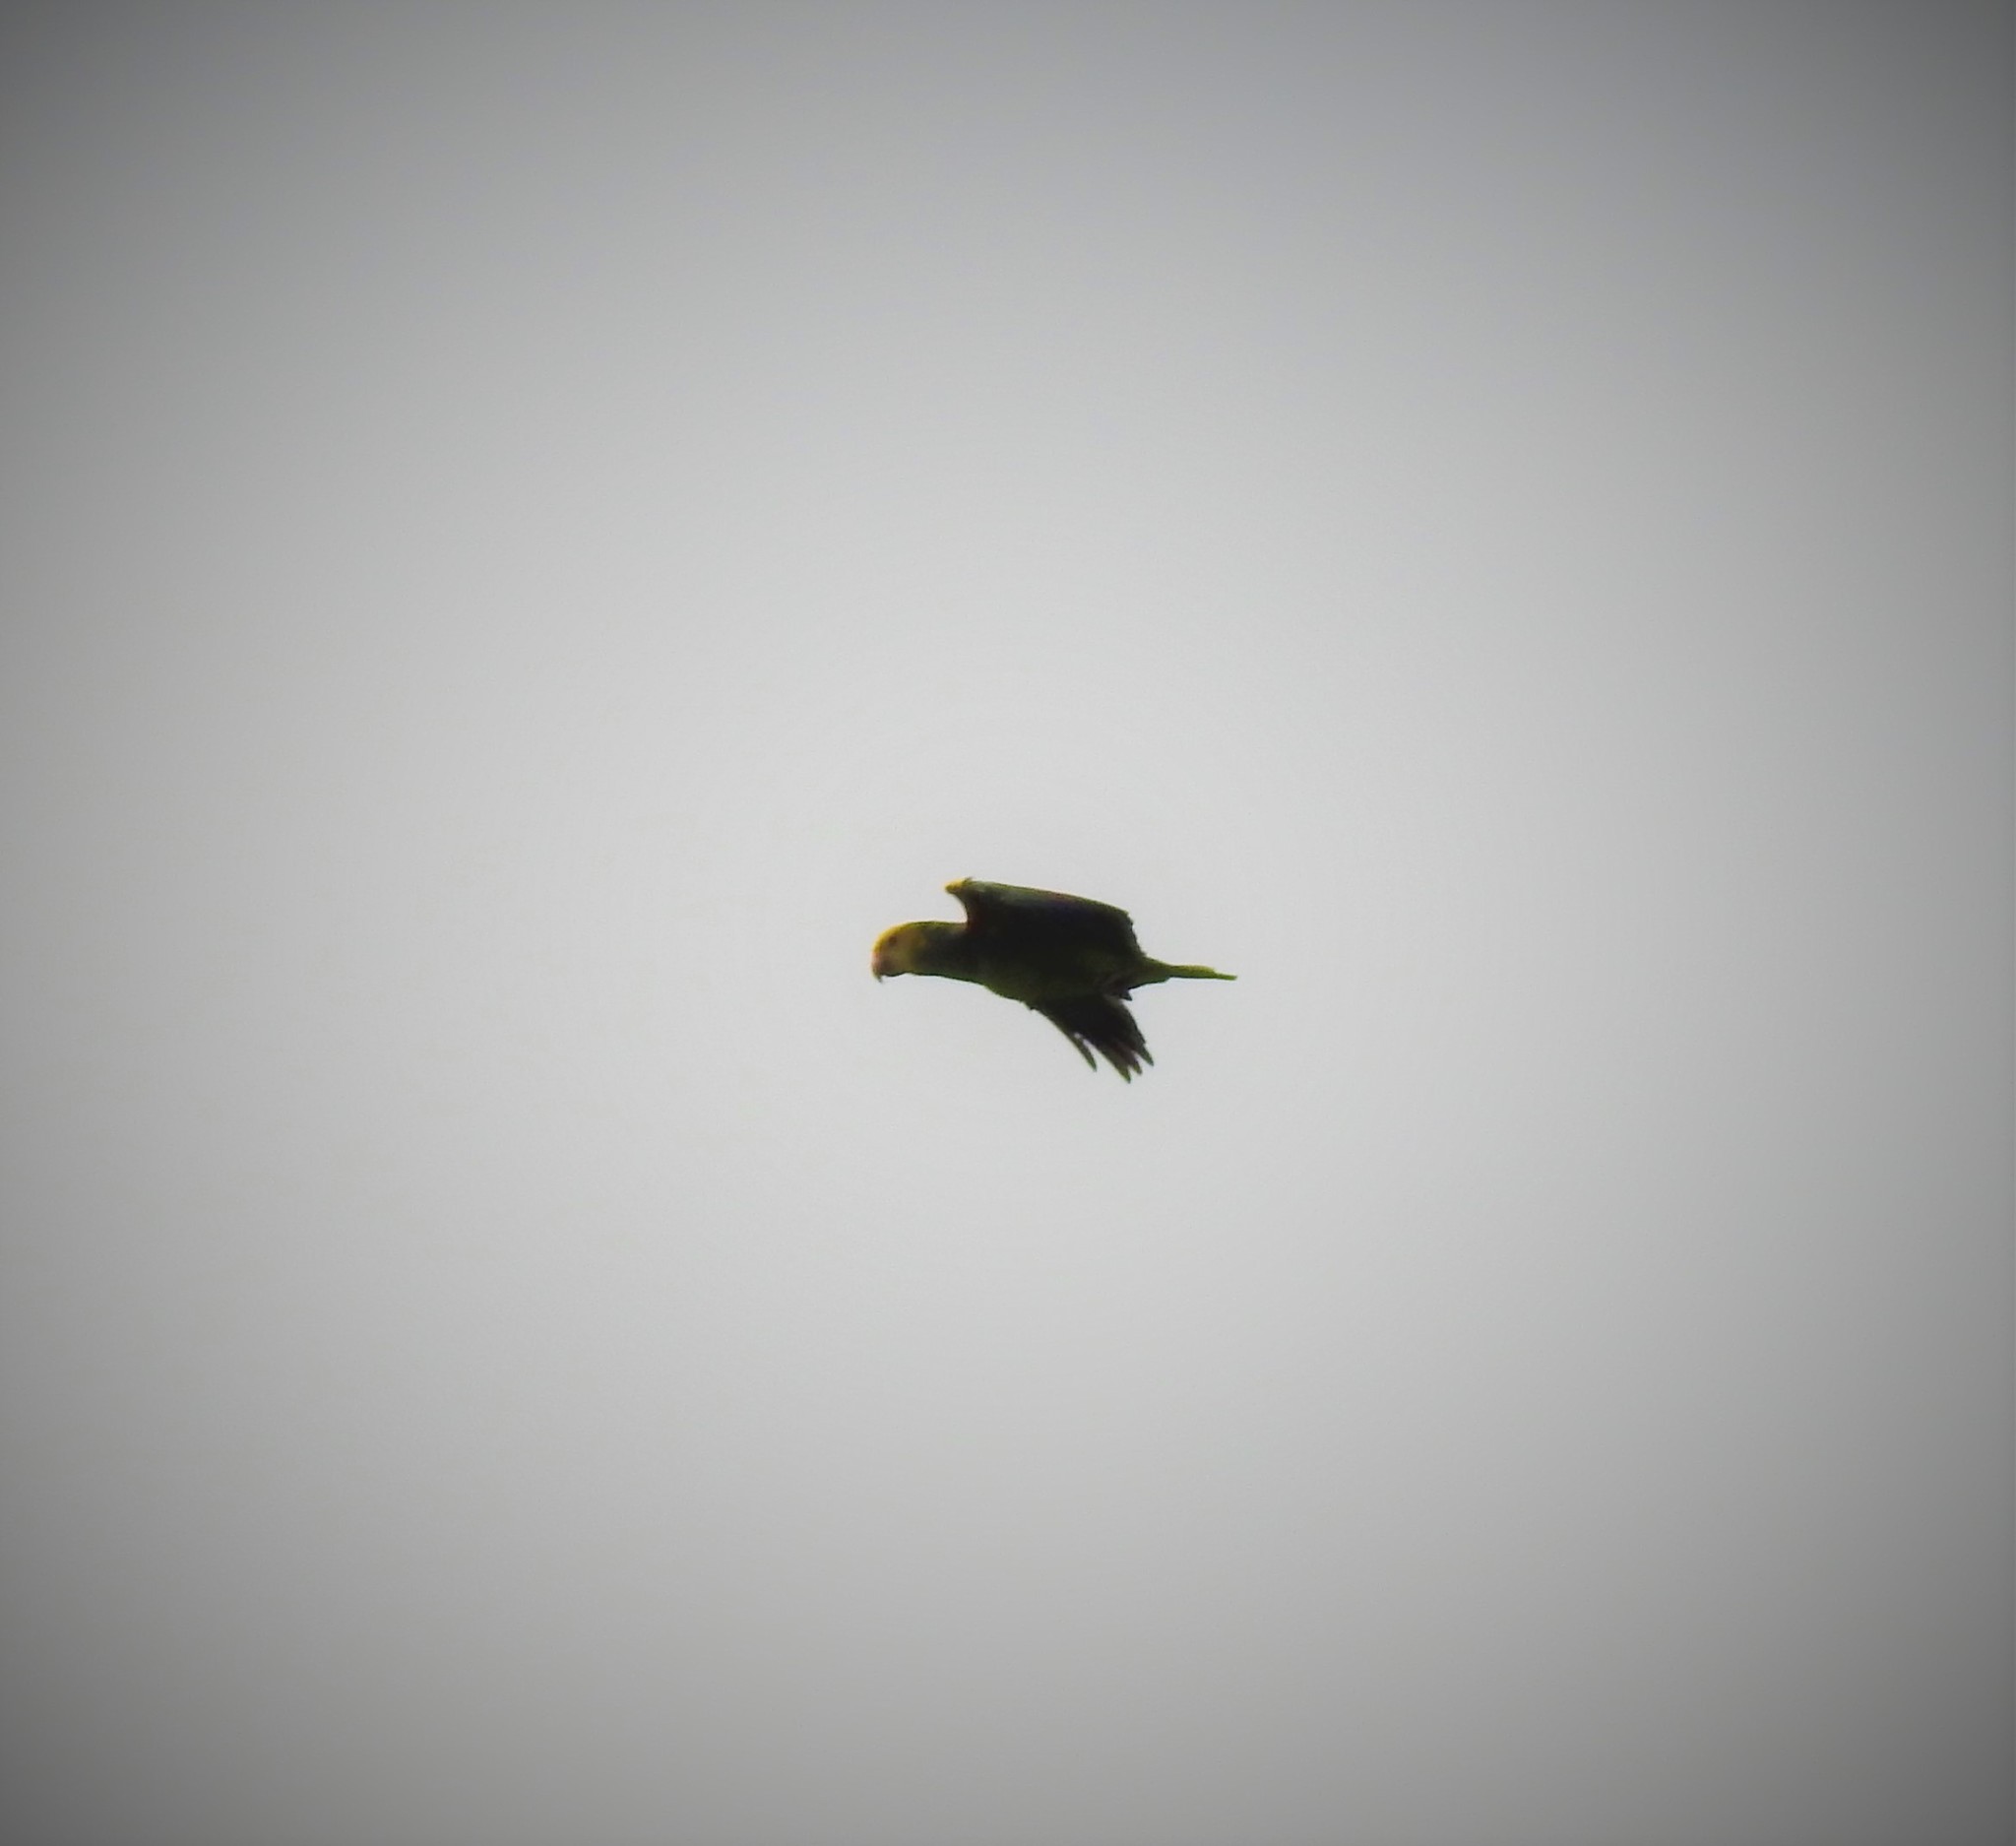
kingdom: Animalia
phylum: Chordata
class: Aves
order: Psittaciformes
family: Psittacidae
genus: Amazona
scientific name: Amazona oratrix
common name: Yellow-headed amazon
